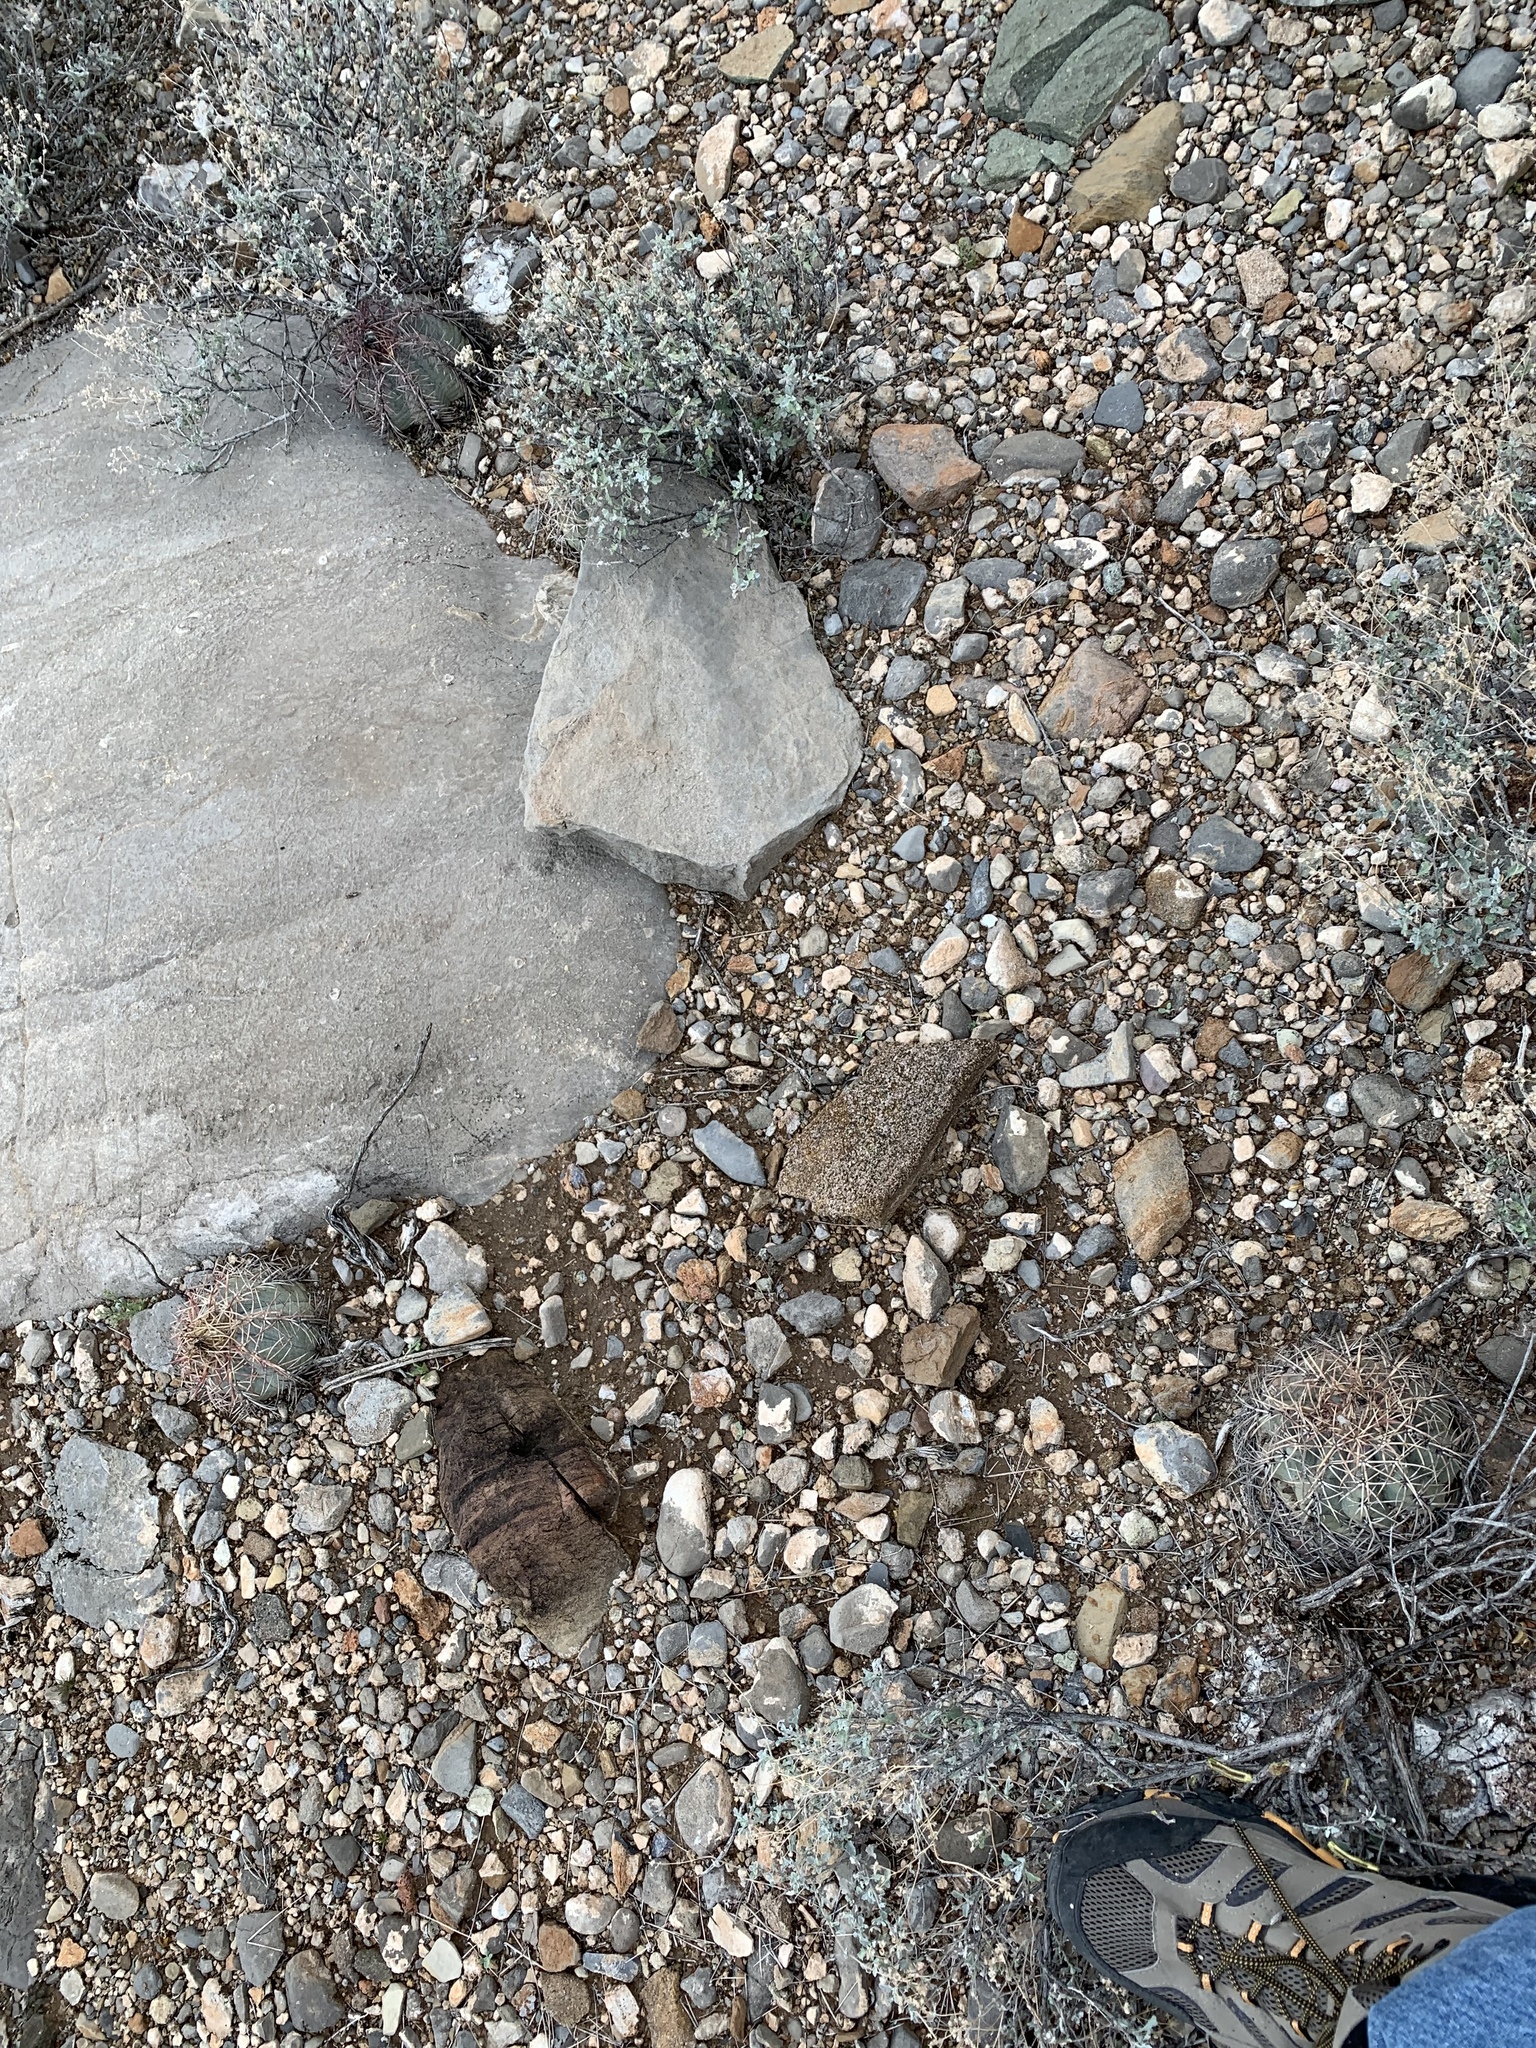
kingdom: Plantae
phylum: Tracheophyta
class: Magnoliopsida
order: Caryophyllales
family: Cactaceae
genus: Echinocactus
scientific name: Echinocactus horizonthalonius
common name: Devilshead
